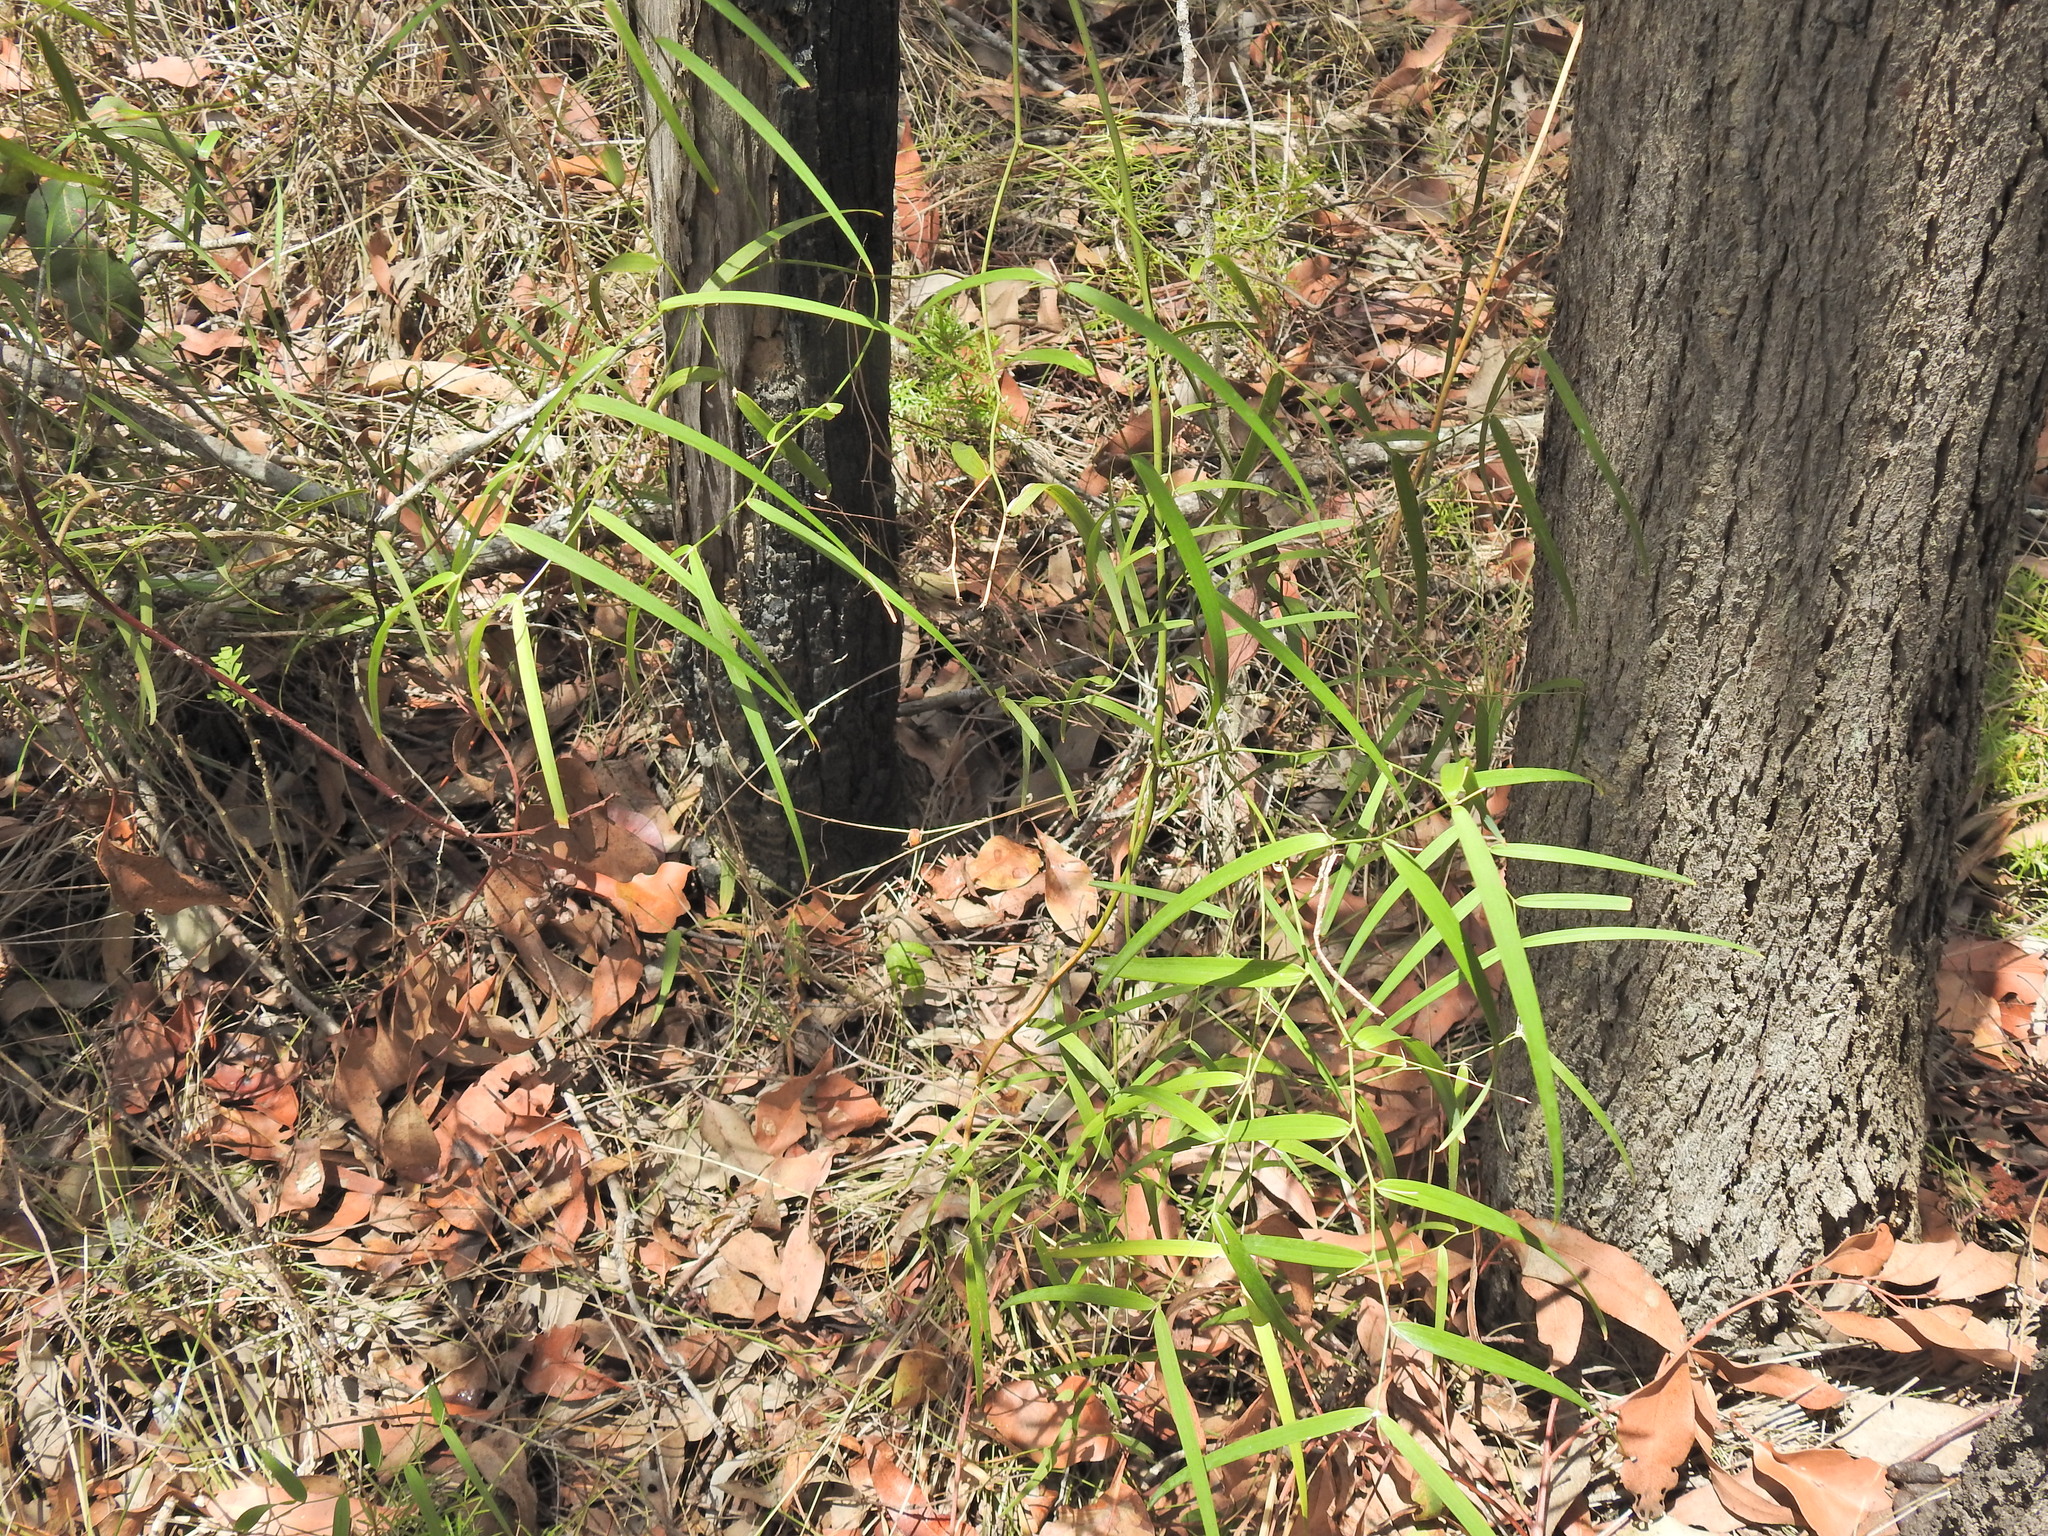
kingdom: Plantae
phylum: Tracheophyta
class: Liliopsida
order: Asparagales
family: Asparagaceae
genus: Eustrephus
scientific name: Eustrephus latifolius
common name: Orangevine
